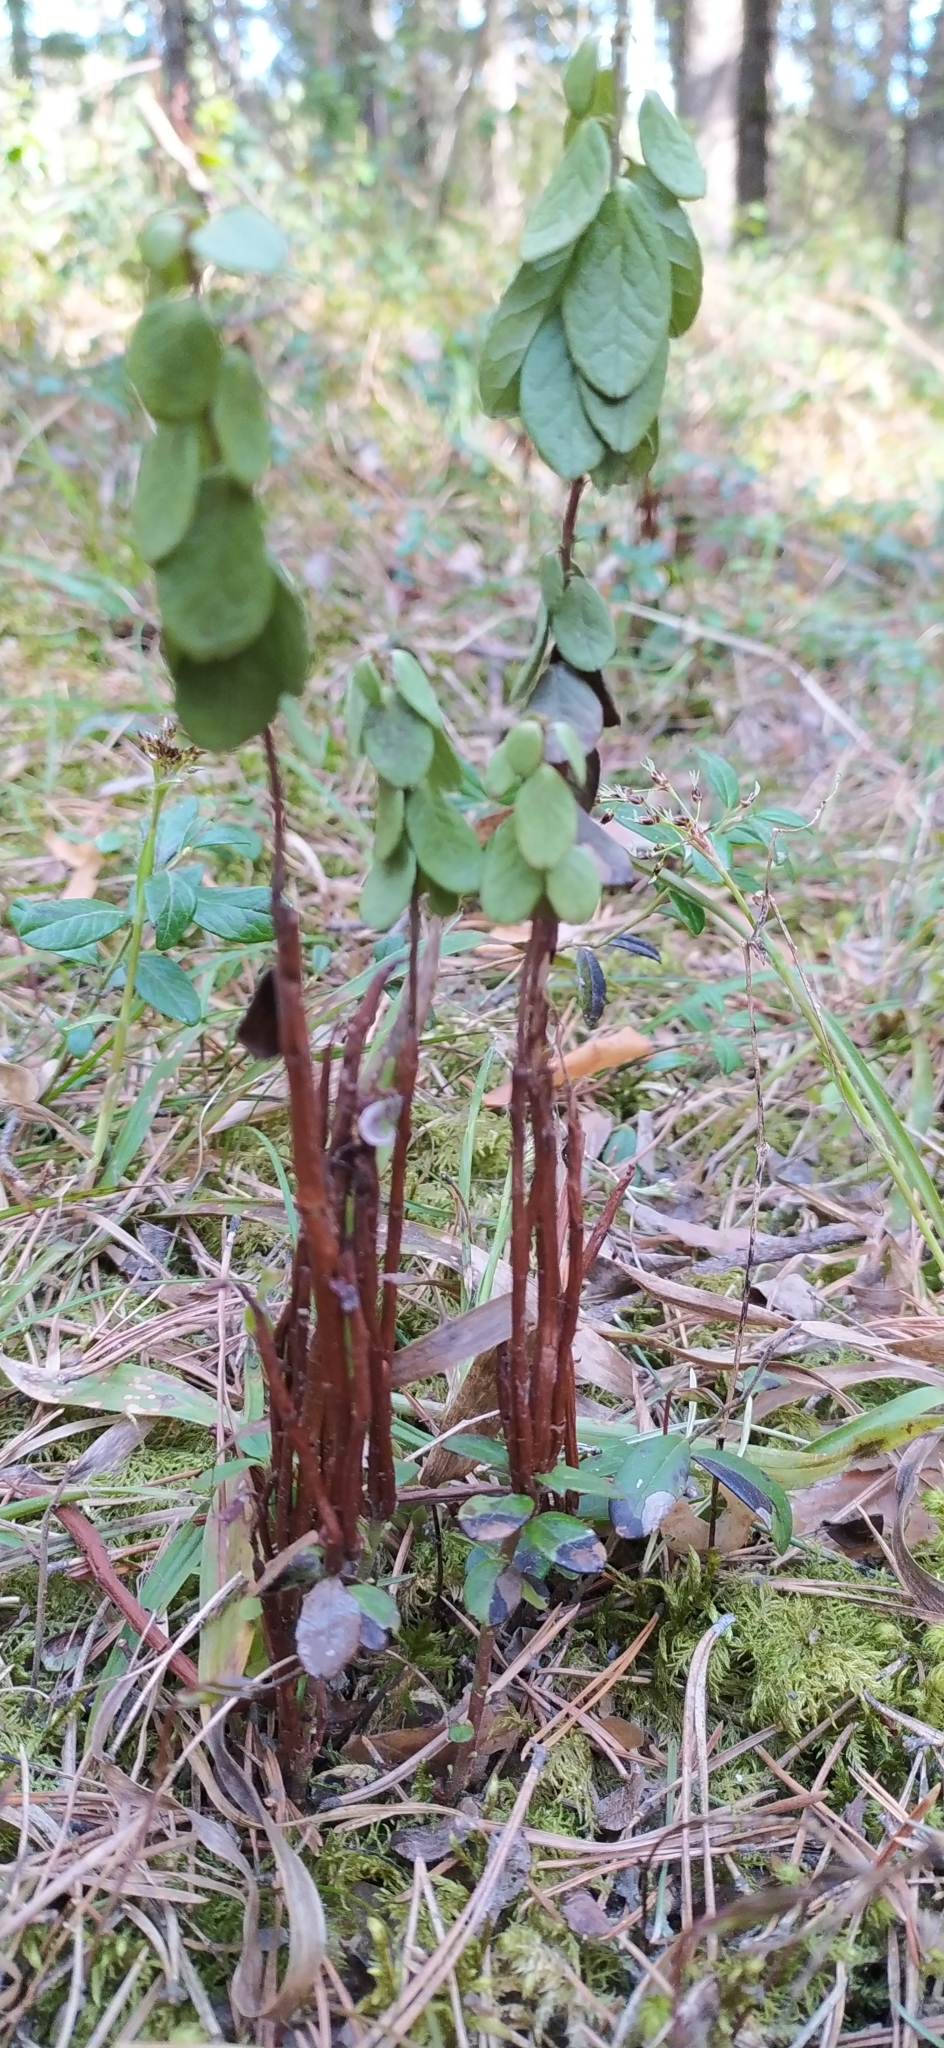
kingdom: Fungi
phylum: Basidiomycota
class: Pucciniomycetes
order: Pucciniales
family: Pucciniastraceae
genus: Calyptospora
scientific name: Calyptospora columnaris
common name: Huckleberry broom rust fungus
